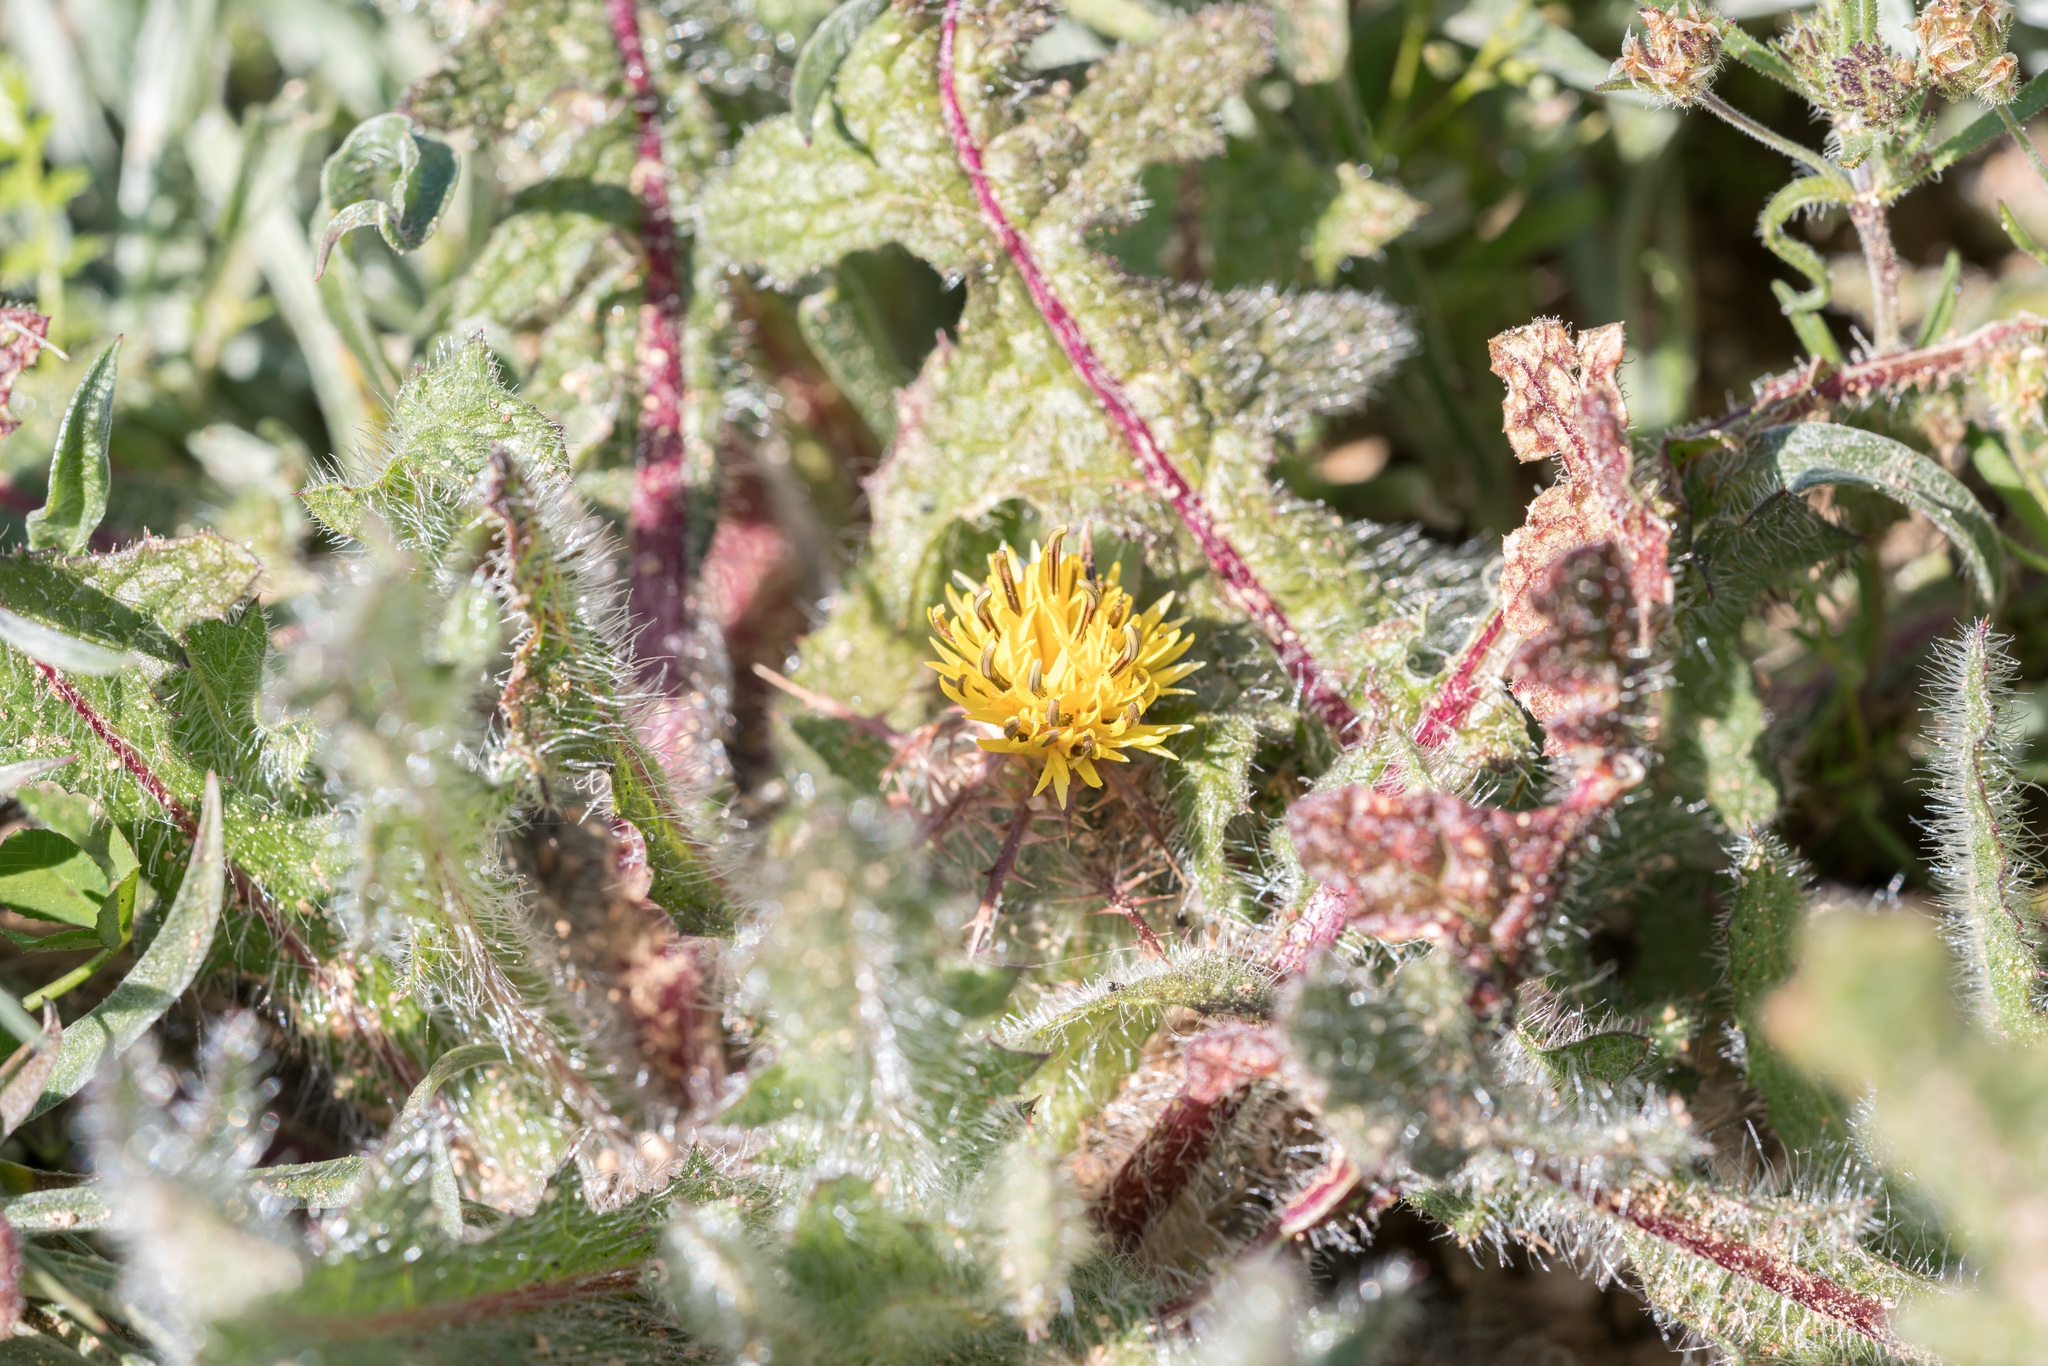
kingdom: Plantae
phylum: Tracheophyta
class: Magnoliopsida
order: Asterales
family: Asteraceae
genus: Centaurea
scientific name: Centaurea benedicta
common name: Blessed thistle
